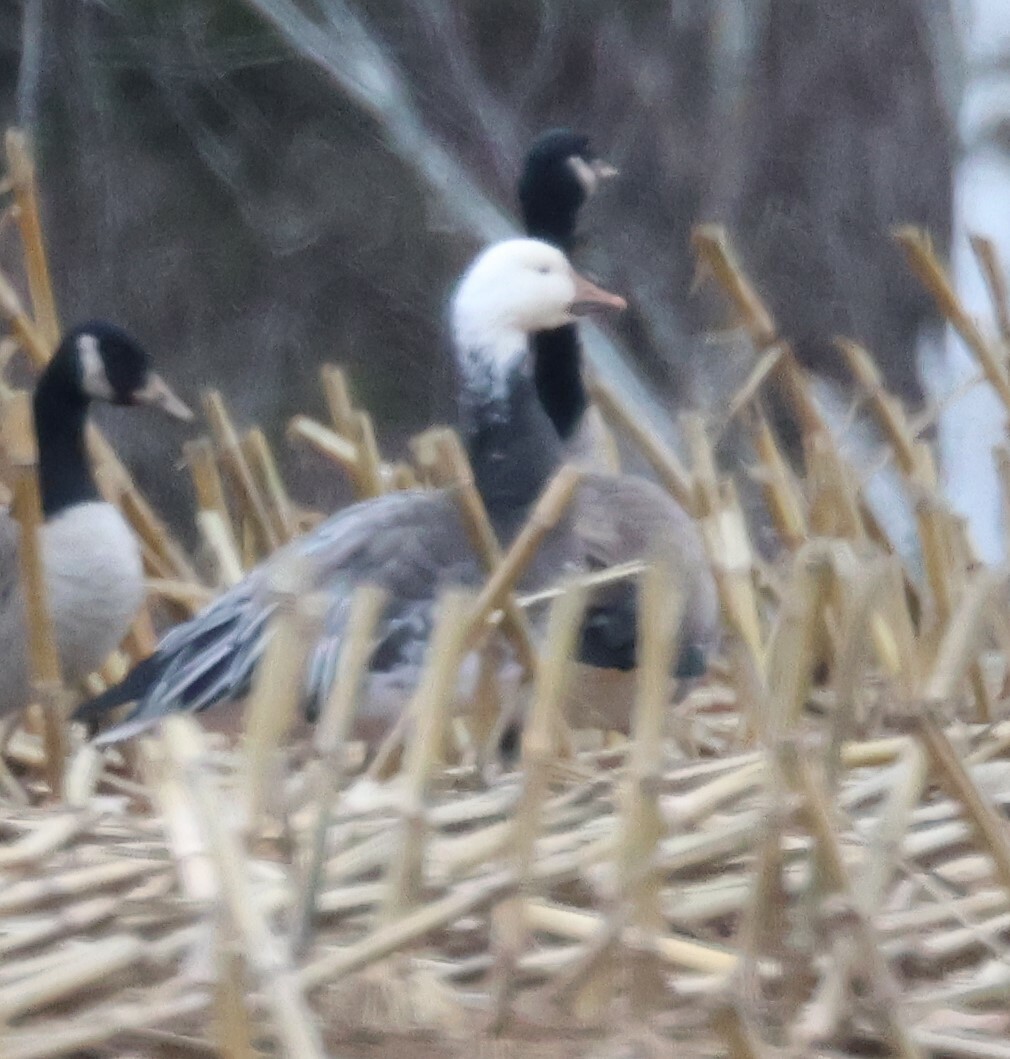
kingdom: Animalia
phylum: Chordata
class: Aves
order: Anseriformes
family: Anatidae
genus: Anser
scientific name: Anser caerulescens
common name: Snow goose
